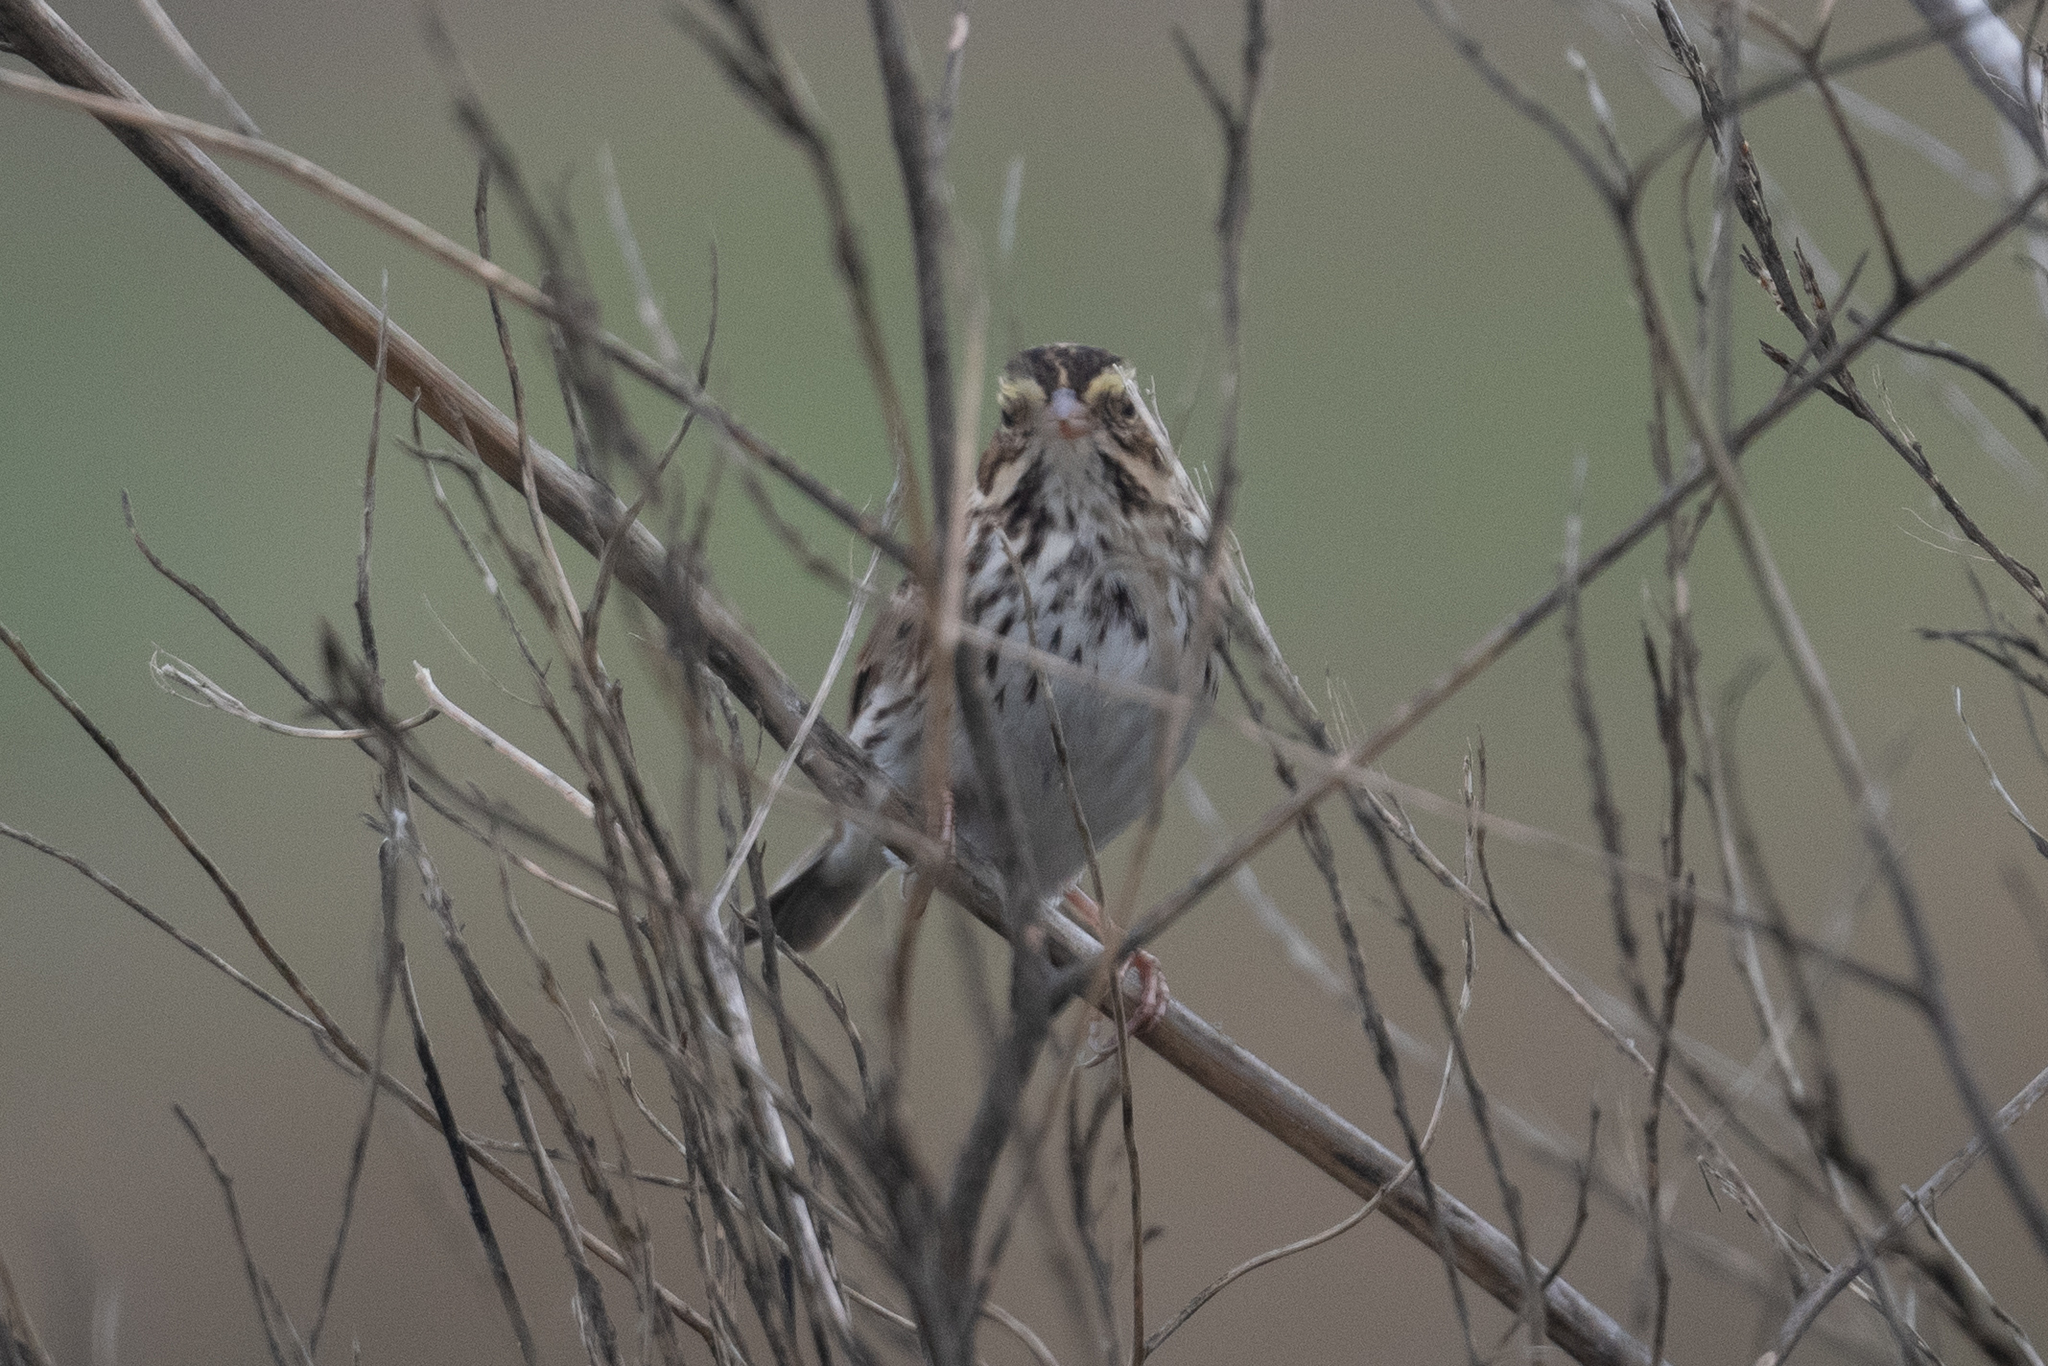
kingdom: Animalia
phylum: Chordata
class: Aves
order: Passeriformes
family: Passerellidae
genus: Passerculus
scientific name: Passerculus sandwichensis
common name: Savannah sparrow
